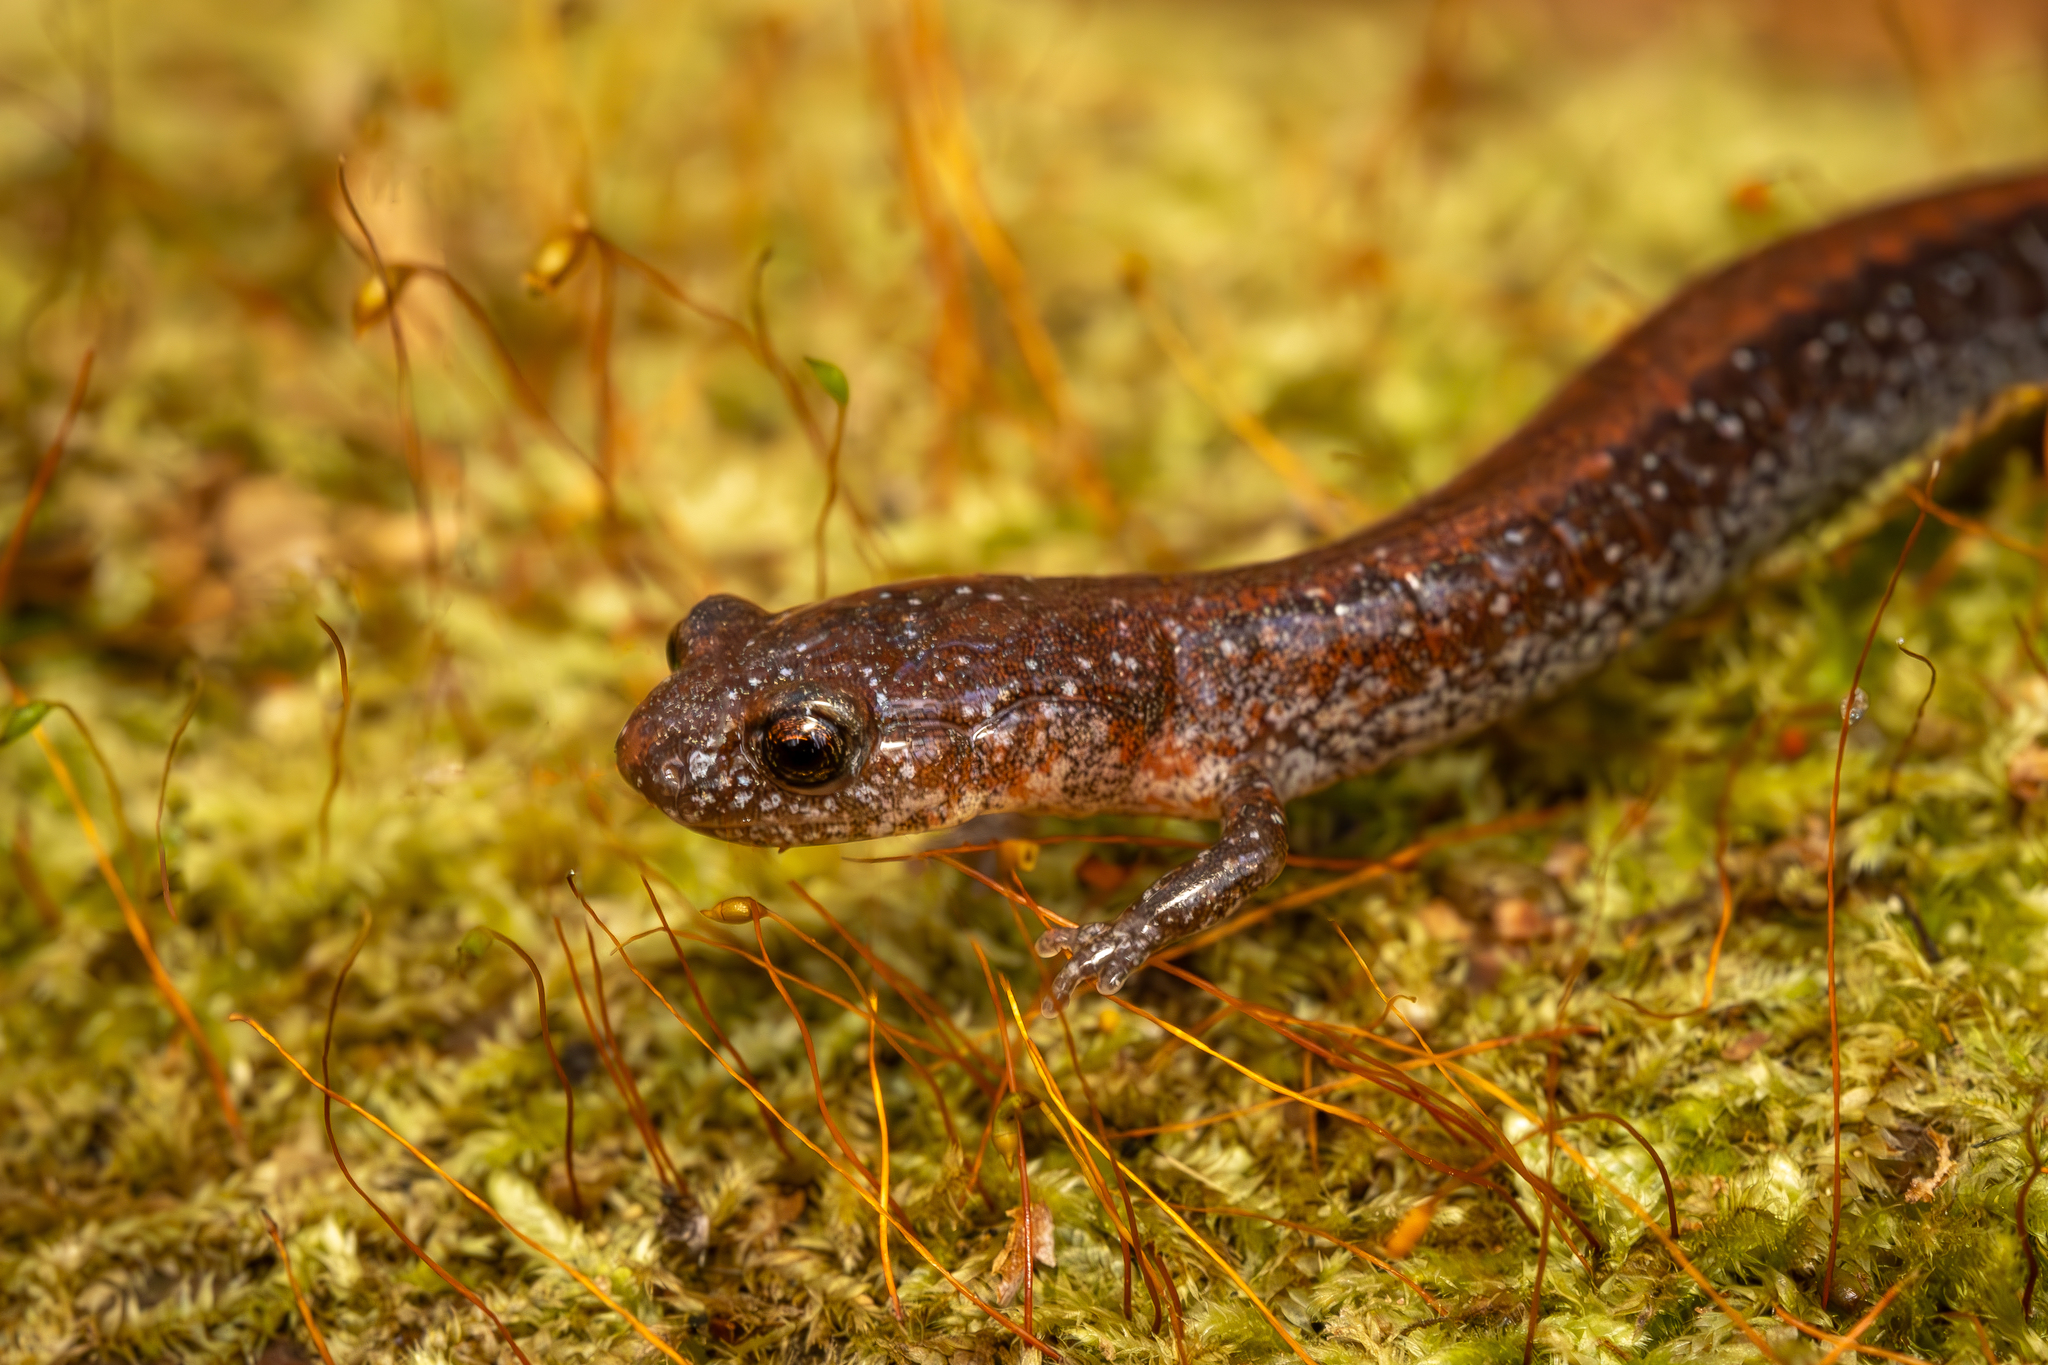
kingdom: Animalia
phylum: Chordata
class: Amphibia
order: Caudata
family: Plethodontidae
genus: Plethodon
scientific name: Plethodon serratus
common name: Southern red-backed salamander
